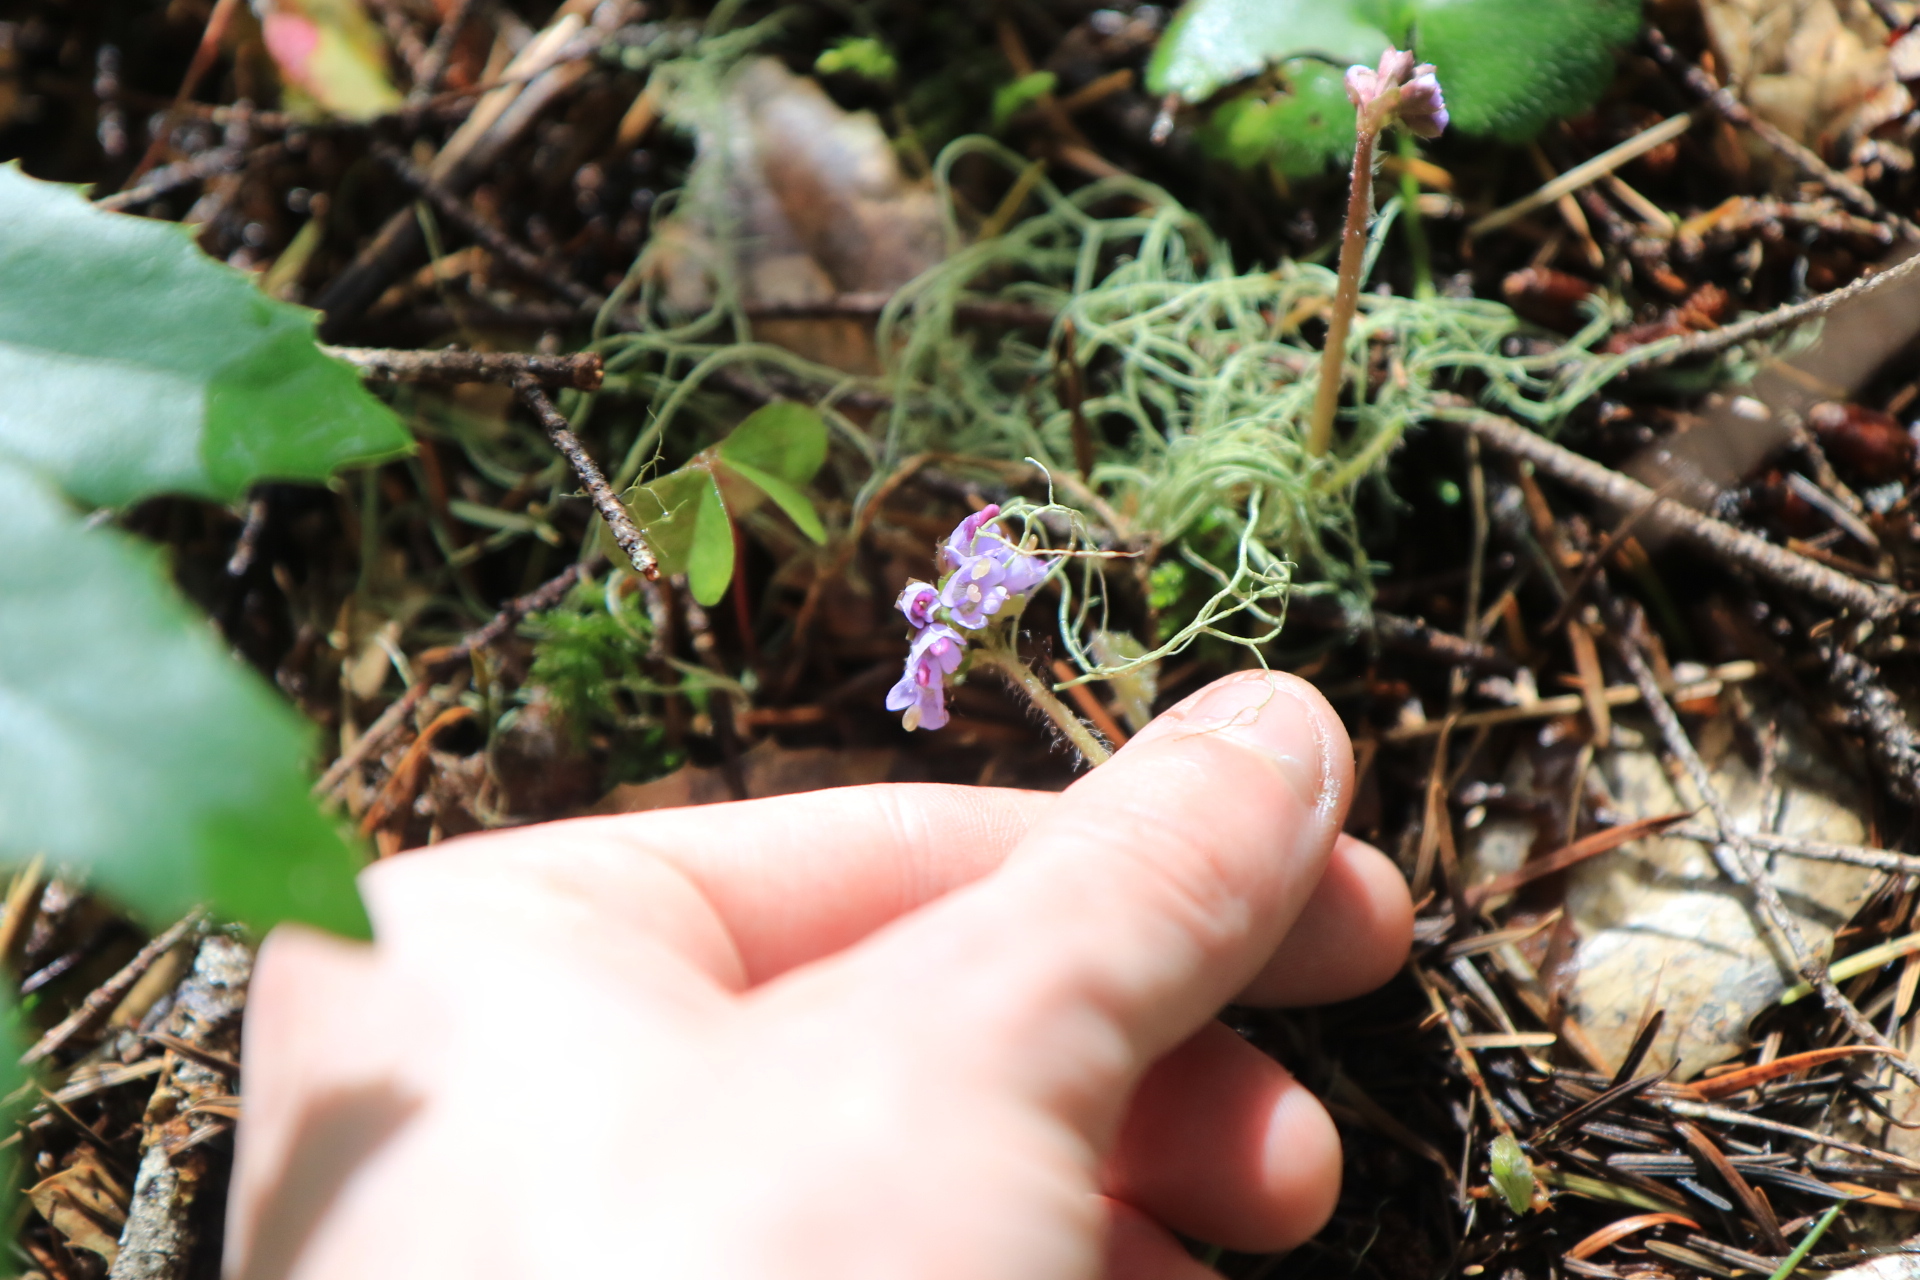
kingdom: Plantae
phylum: Tracheophyta
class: Magnoliopsida
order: Lamiales
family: Plantaginaceae
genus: Synthyris
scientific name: Synthyris reniformis
